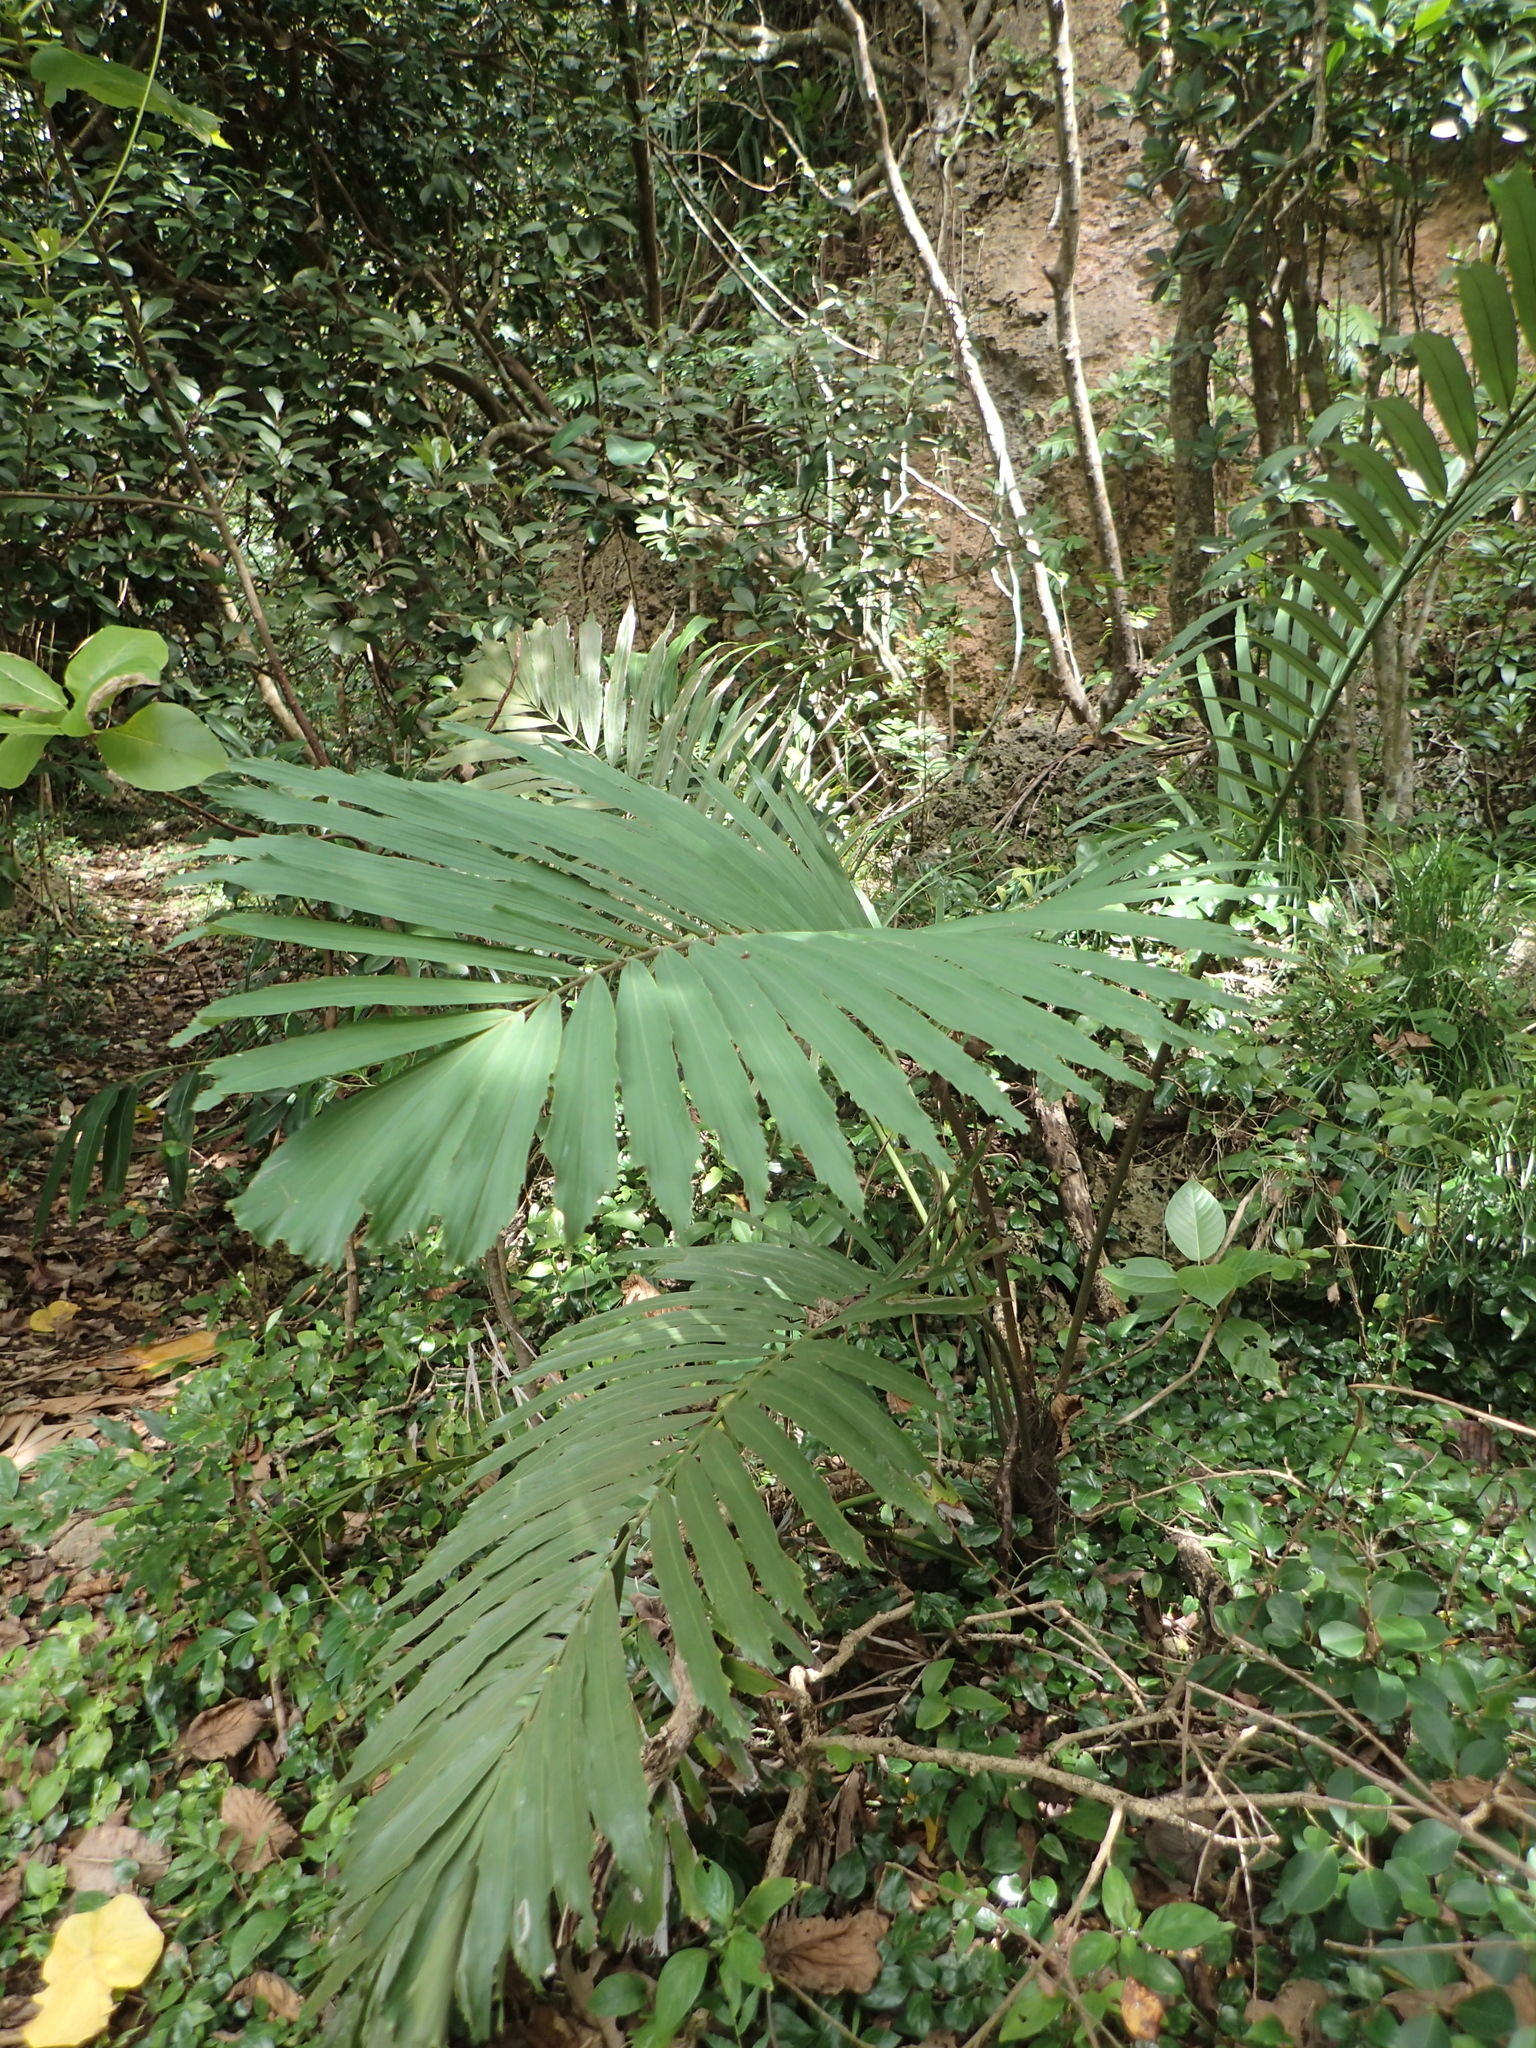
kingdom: Plantae
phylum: Tracheophyta
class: Liliopsida
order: Arecales
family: Arecaceae
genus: Arenga
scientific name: Arenga engleri
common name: Formosan sugar palm
